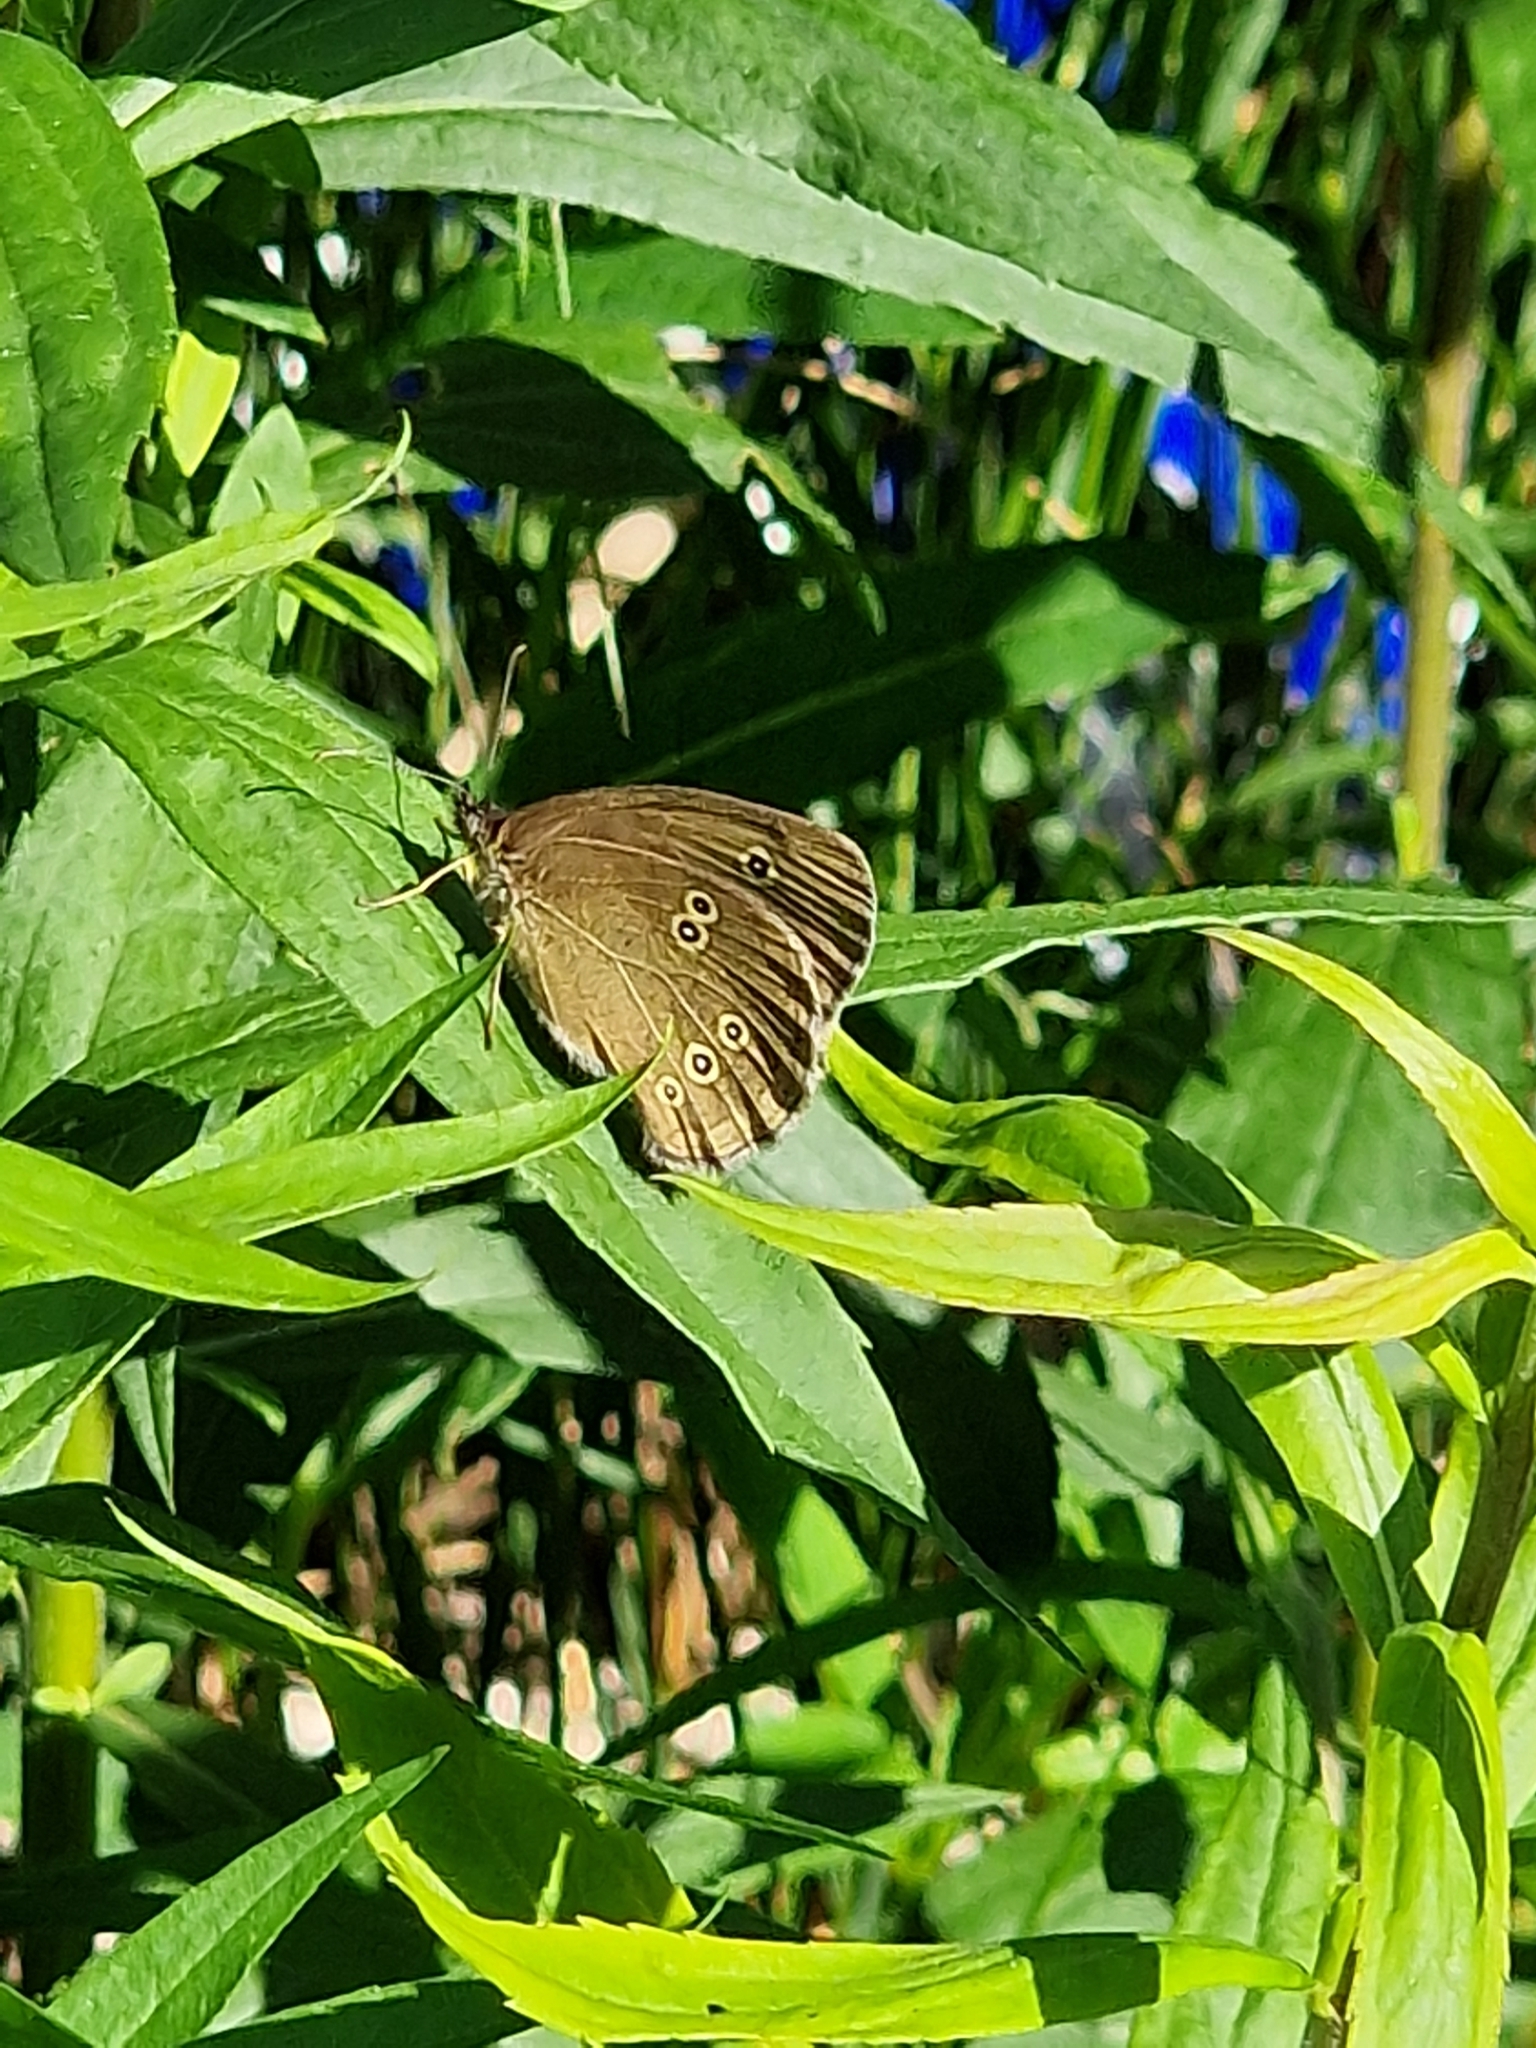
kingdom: Animalia
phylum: Arthropoda
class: Insecta
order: Lepidoptera
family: Nymphalidae
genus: Aphantopus
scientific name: Aphantopus hyperantus
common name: Ringlet
